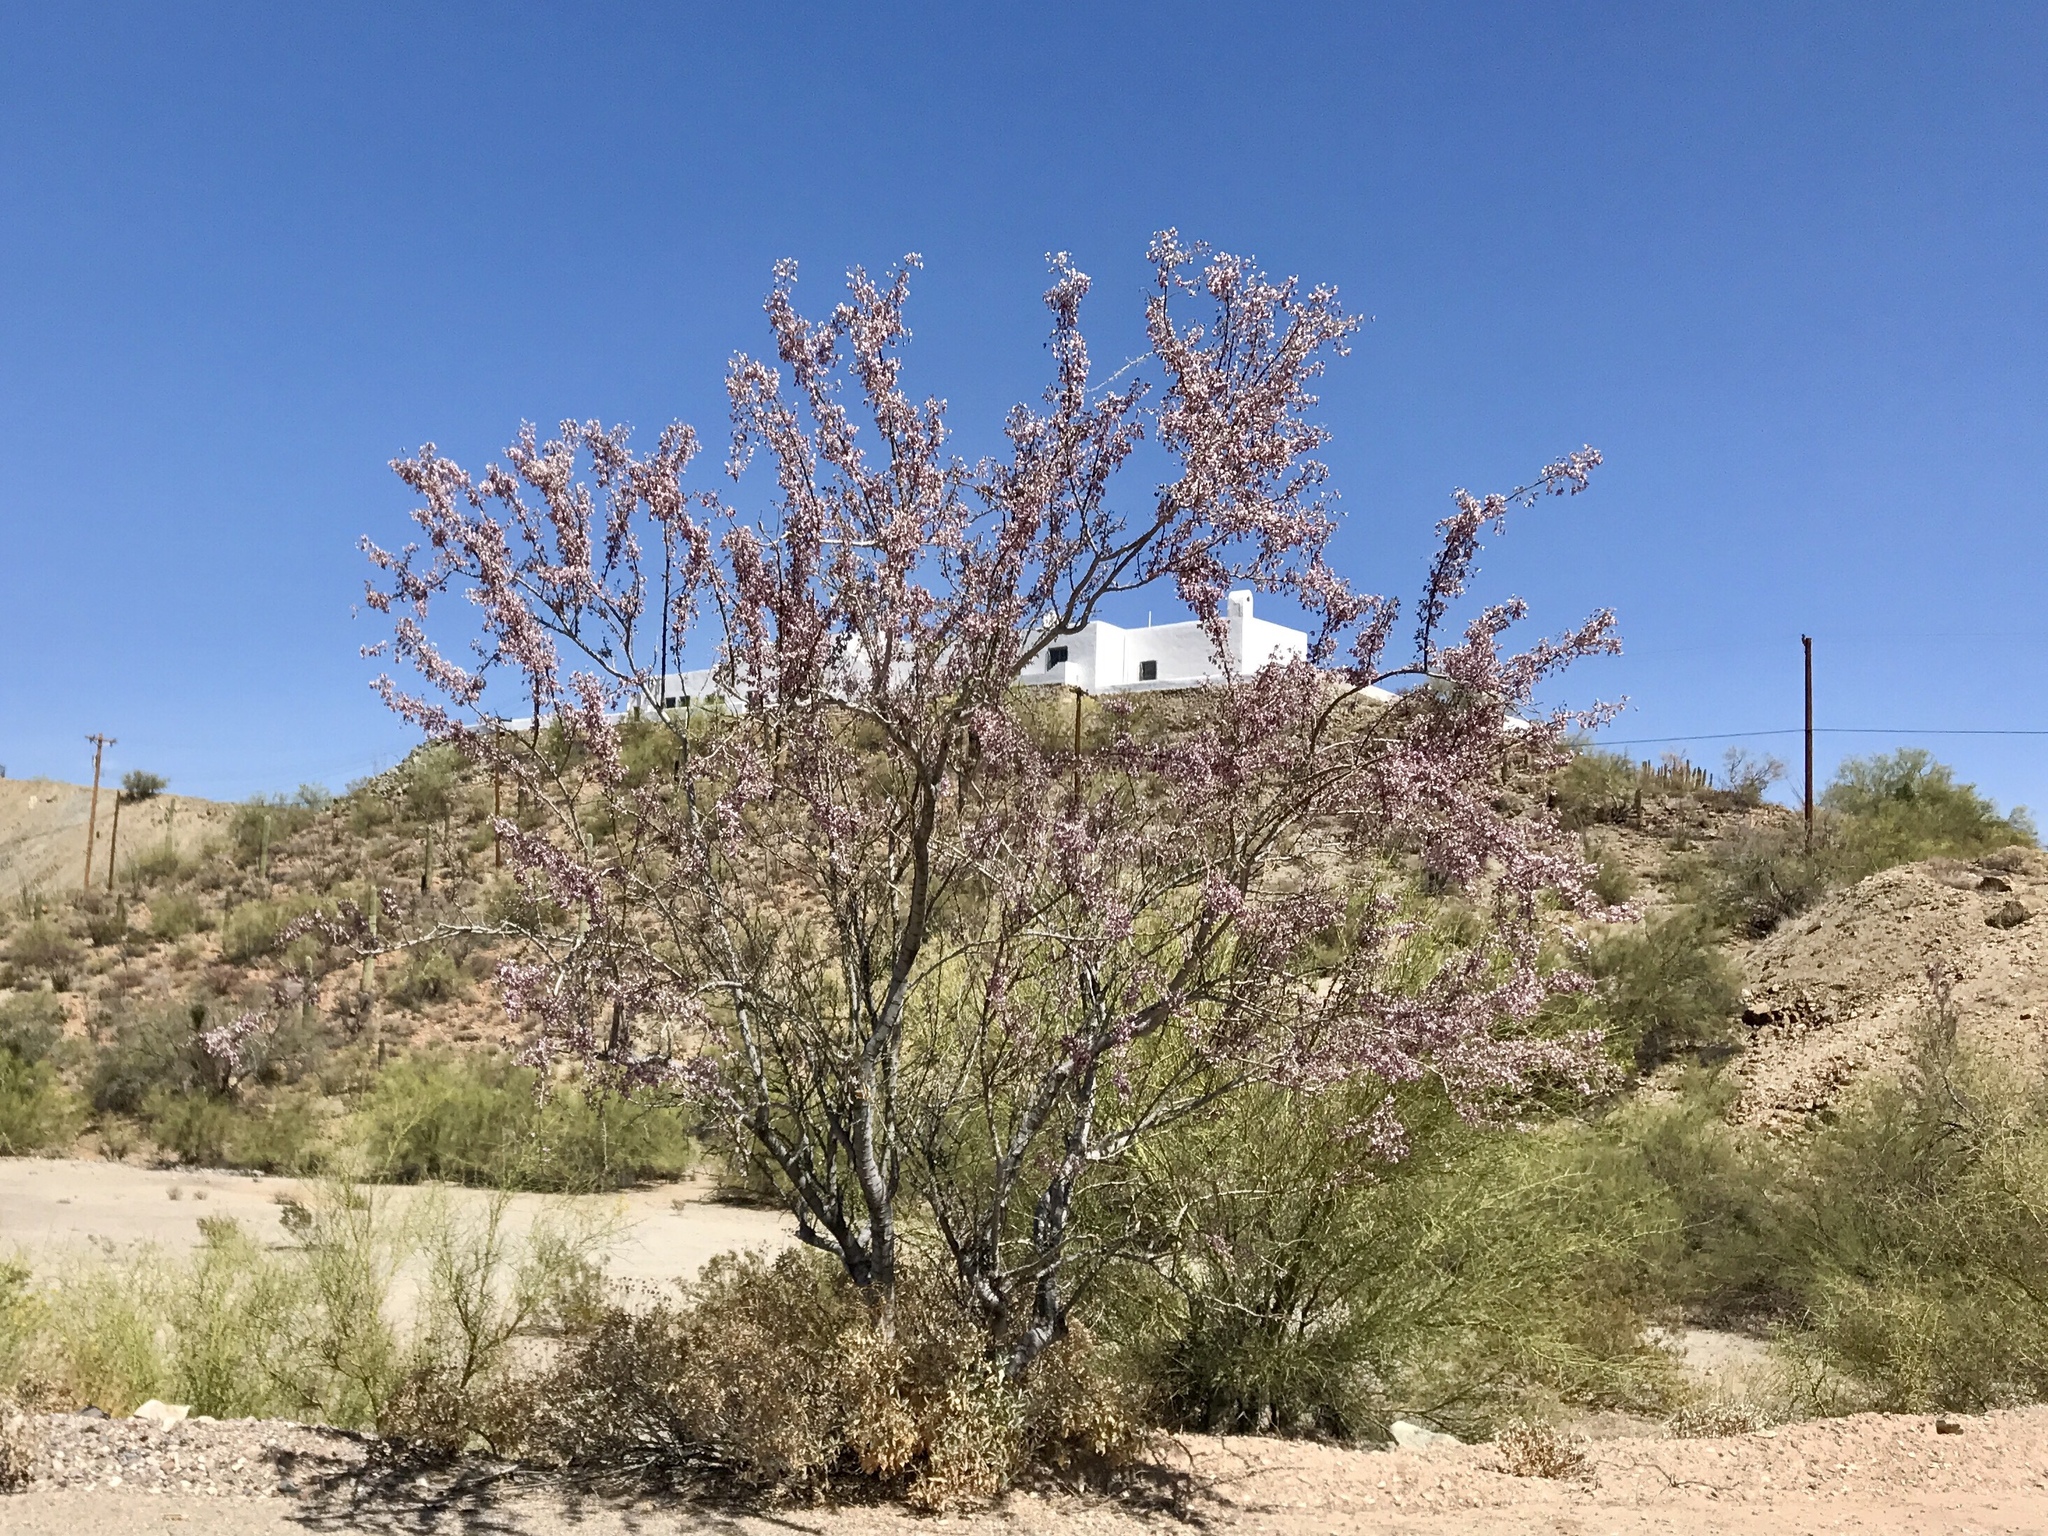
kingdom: Plantae
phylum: Tracheophyta
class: Magnoliopsida
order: Fabales
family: Fabaceae
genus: Olneya
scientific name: Olneya tesota
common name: Desert ironwood
